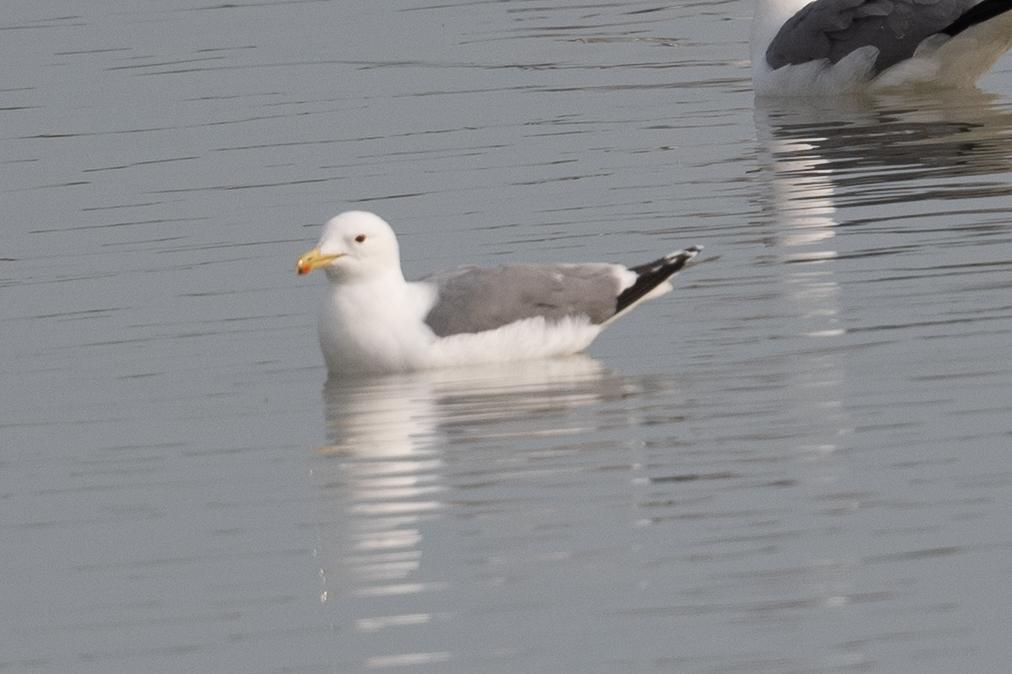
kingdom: Animalia
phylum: Chordata
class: Aves
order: Charadriiformes
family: Laridae
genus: Larus
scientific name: Larus californicus
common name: California gull
